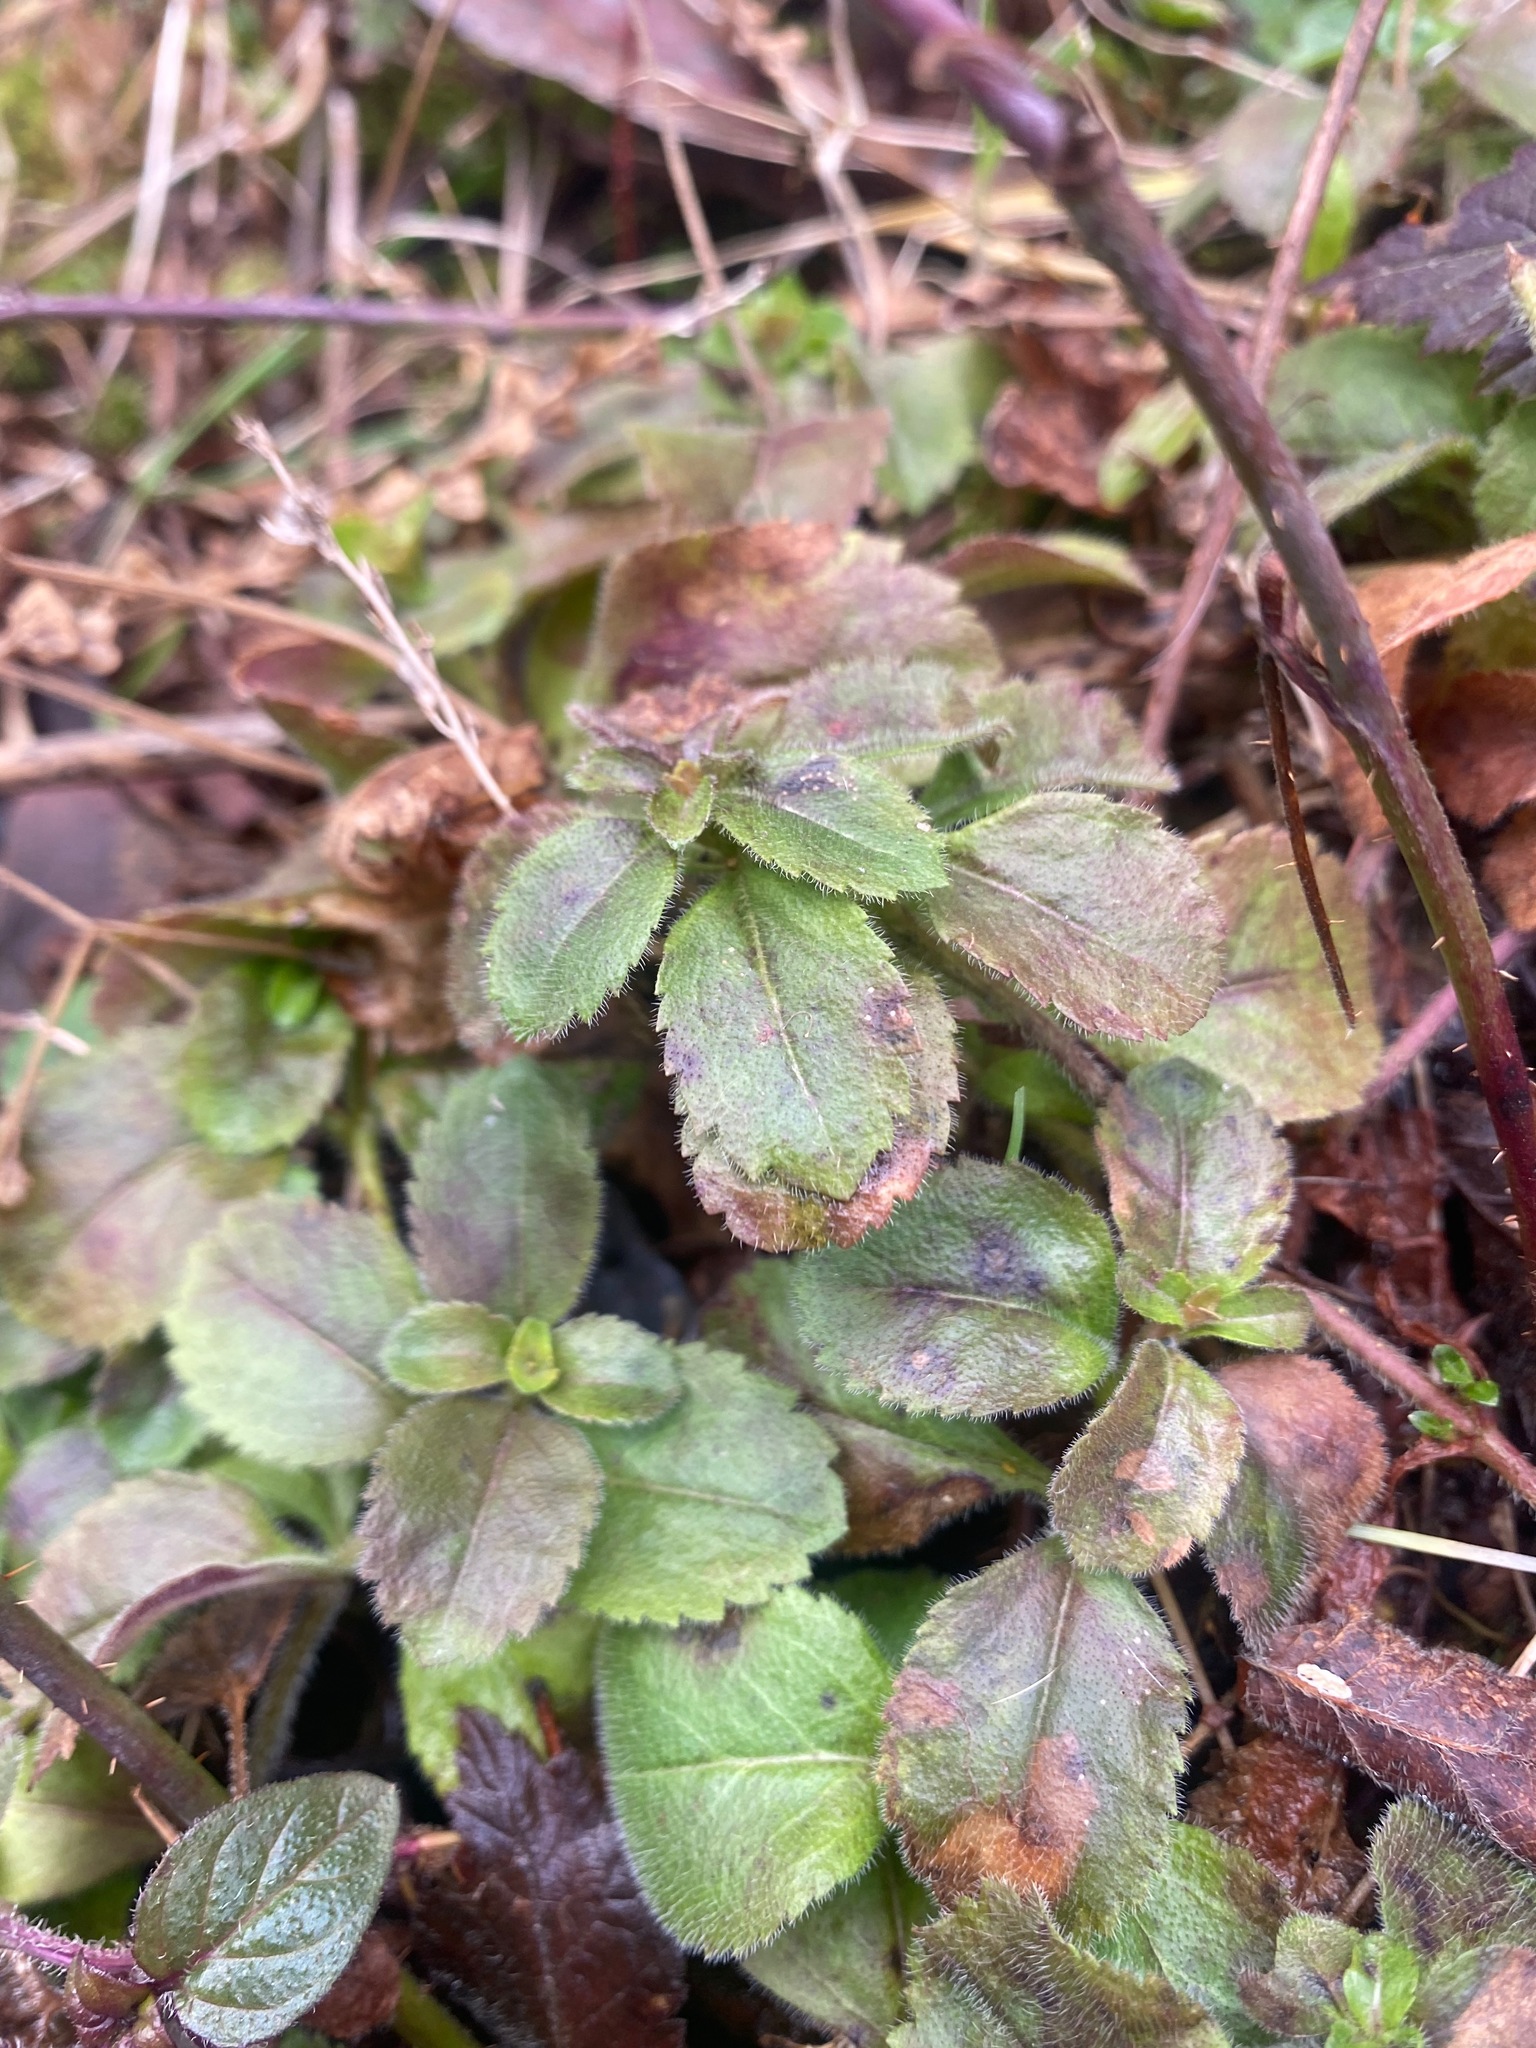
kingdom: Plantae
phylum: Tracheophyta
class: Magnoliopsida
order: Lamiales
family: Plantaginaceae
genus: Veronica
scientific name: Veronica officinalis
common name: Common speedwell
